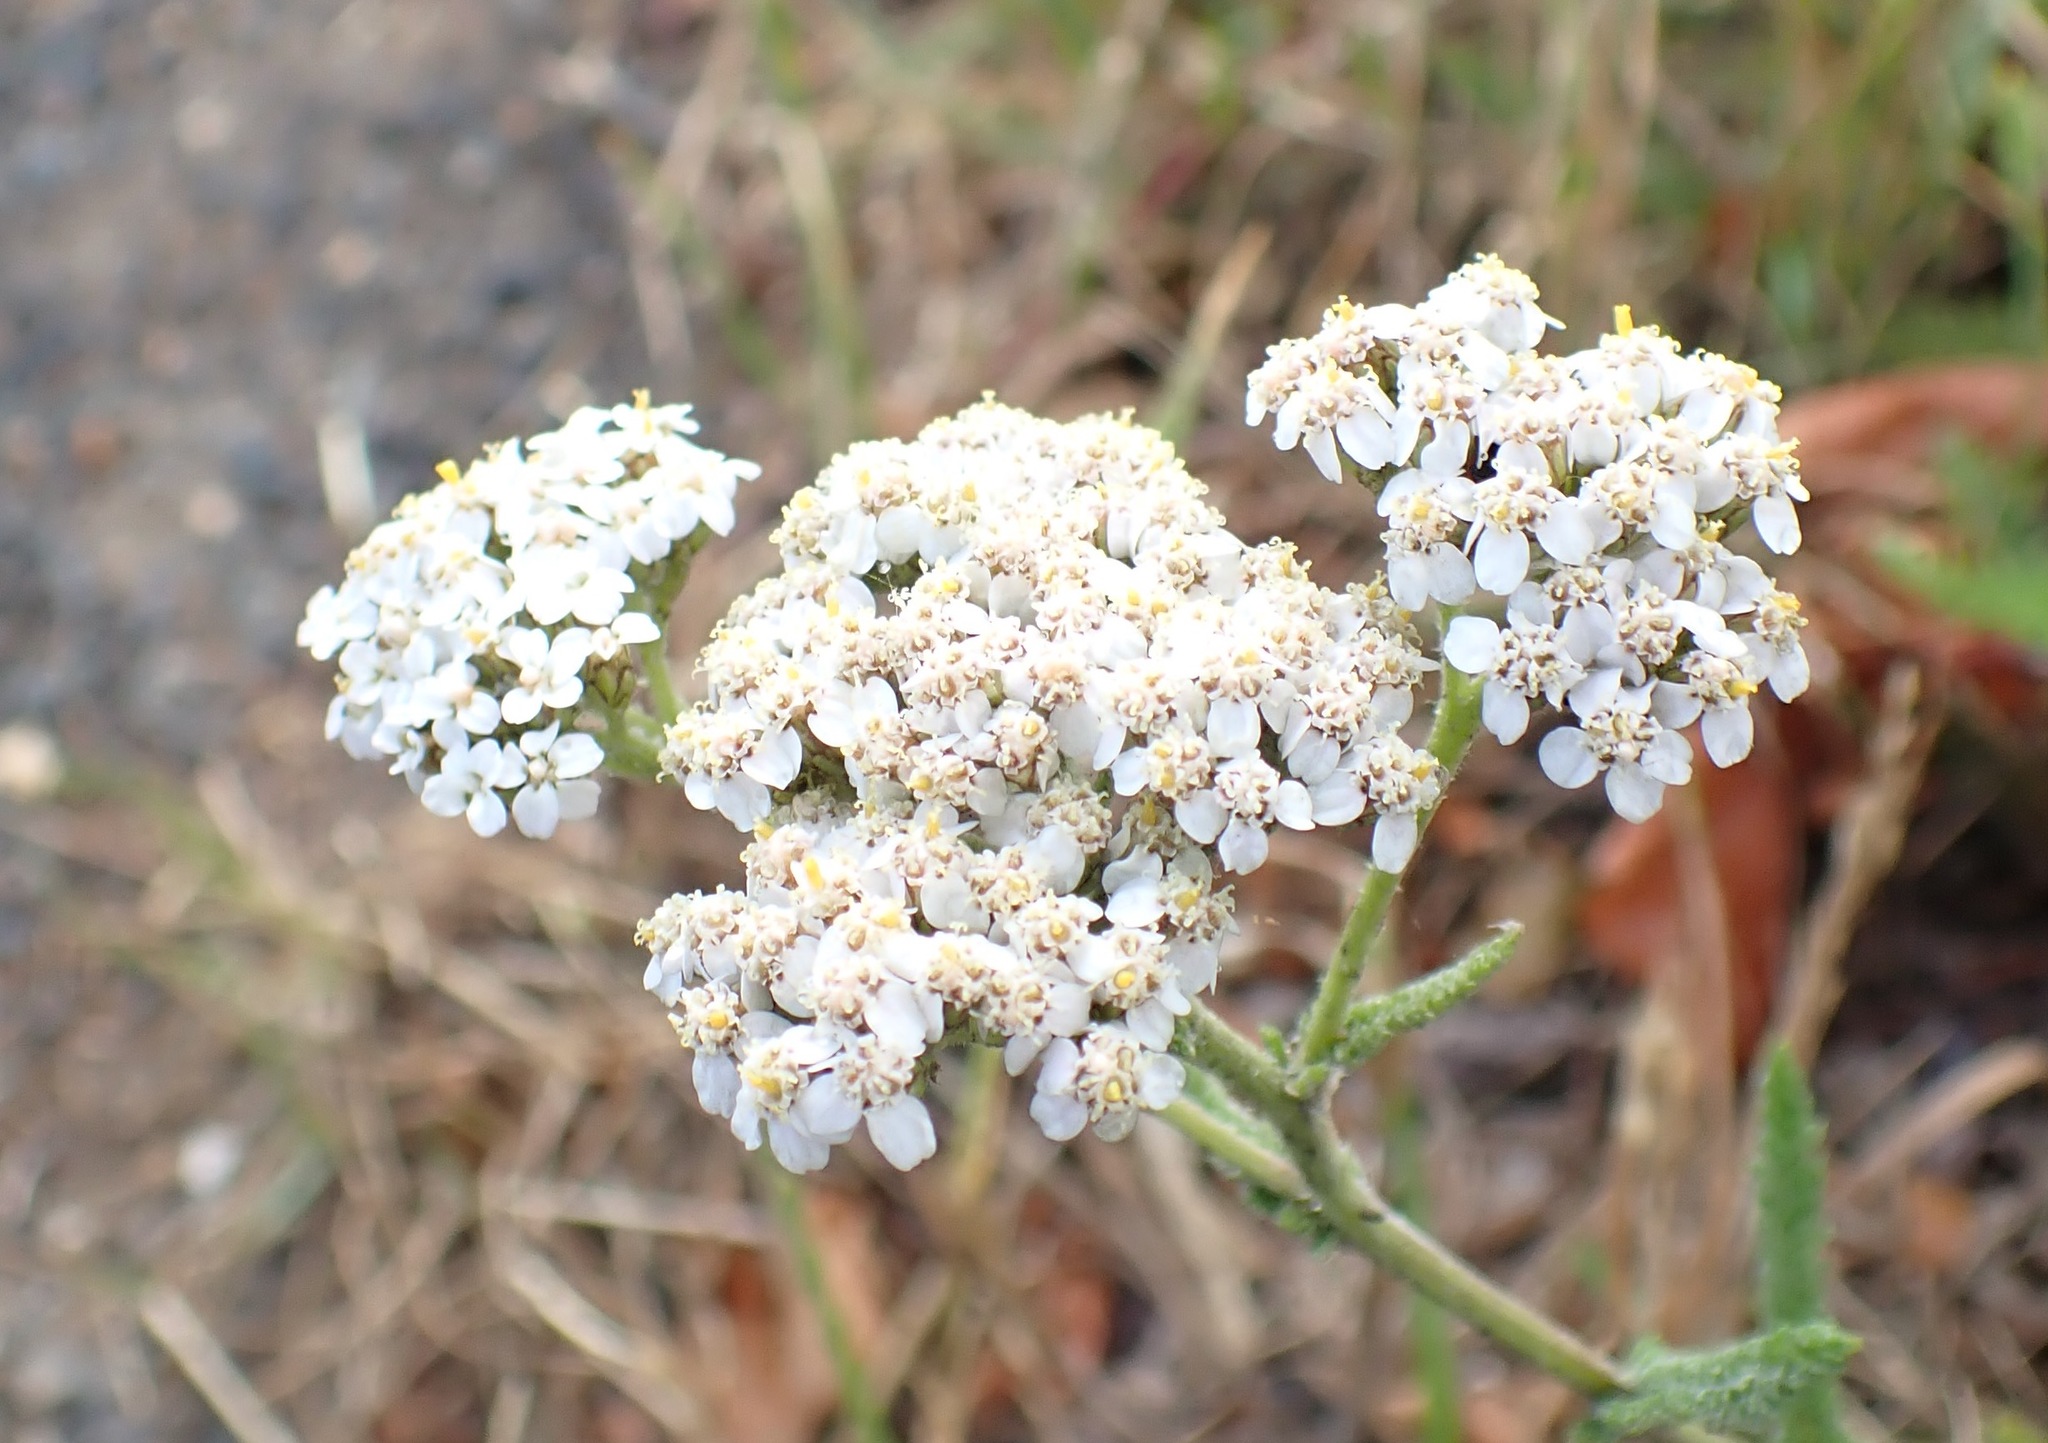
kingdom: Plantae
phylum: Tracheophyta
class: Magnoliopsida
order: Asterales
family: Asteraceae
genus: Achillea
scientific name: Achillea millefolium
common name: Yarrow
